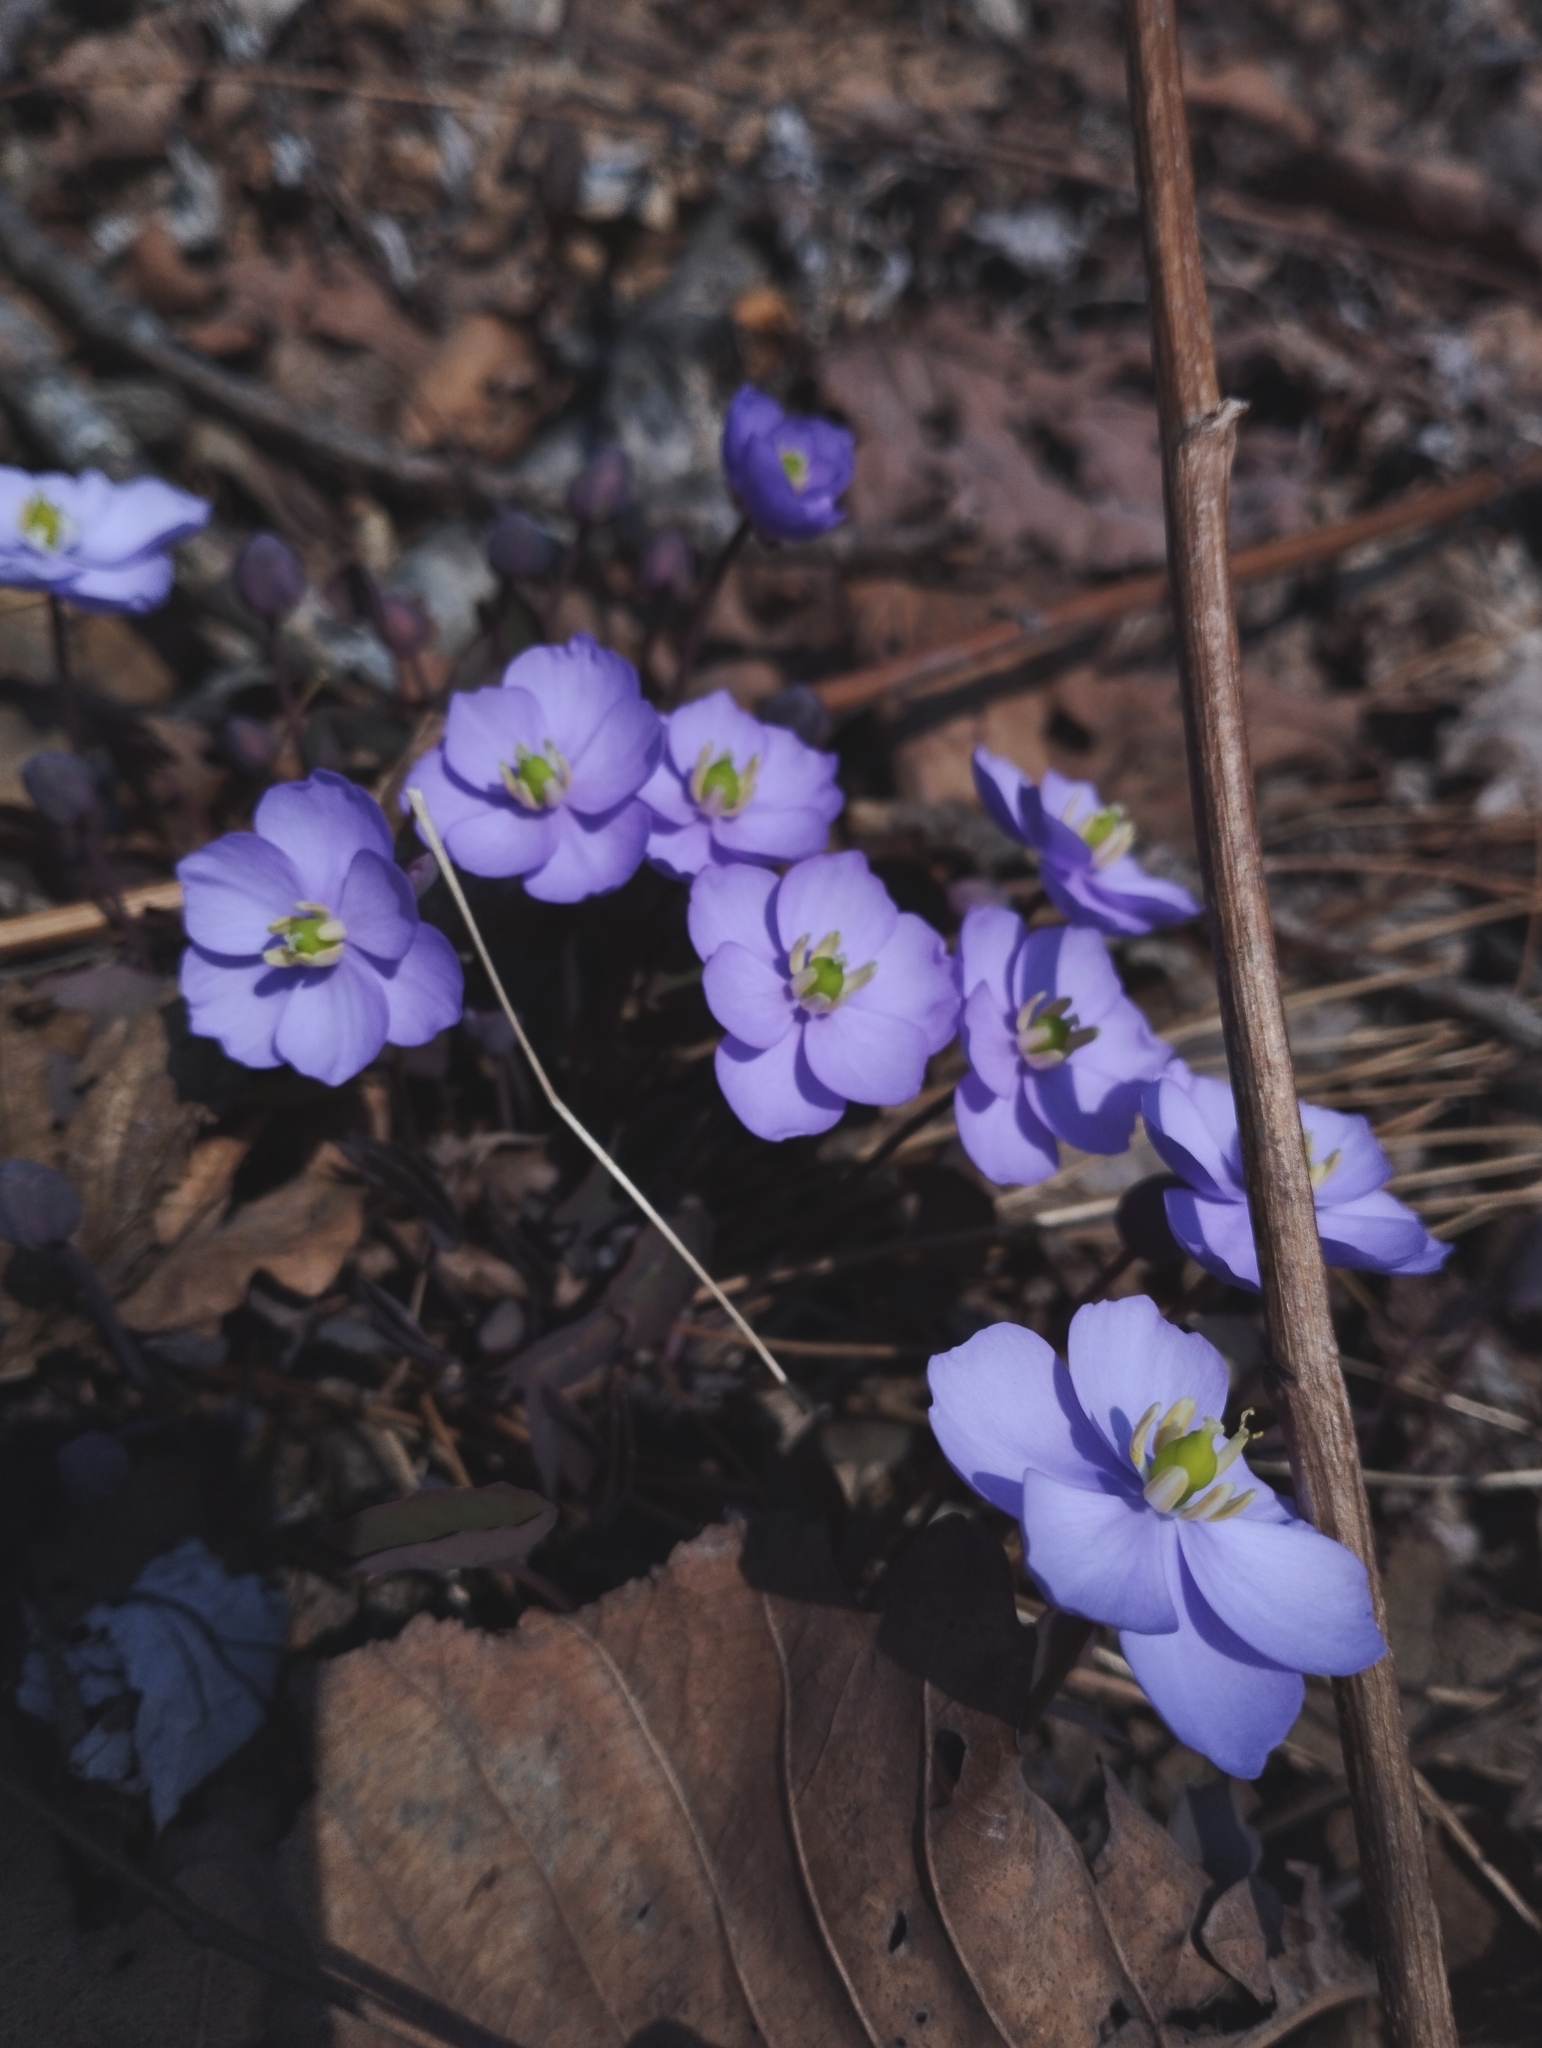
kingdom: Plantae
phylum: Tracheophyta
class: Magnoliopsida
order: Ranunculales
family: Berberidaceae
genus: Plagiorhegma
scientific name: Plagiorhegma dubium
